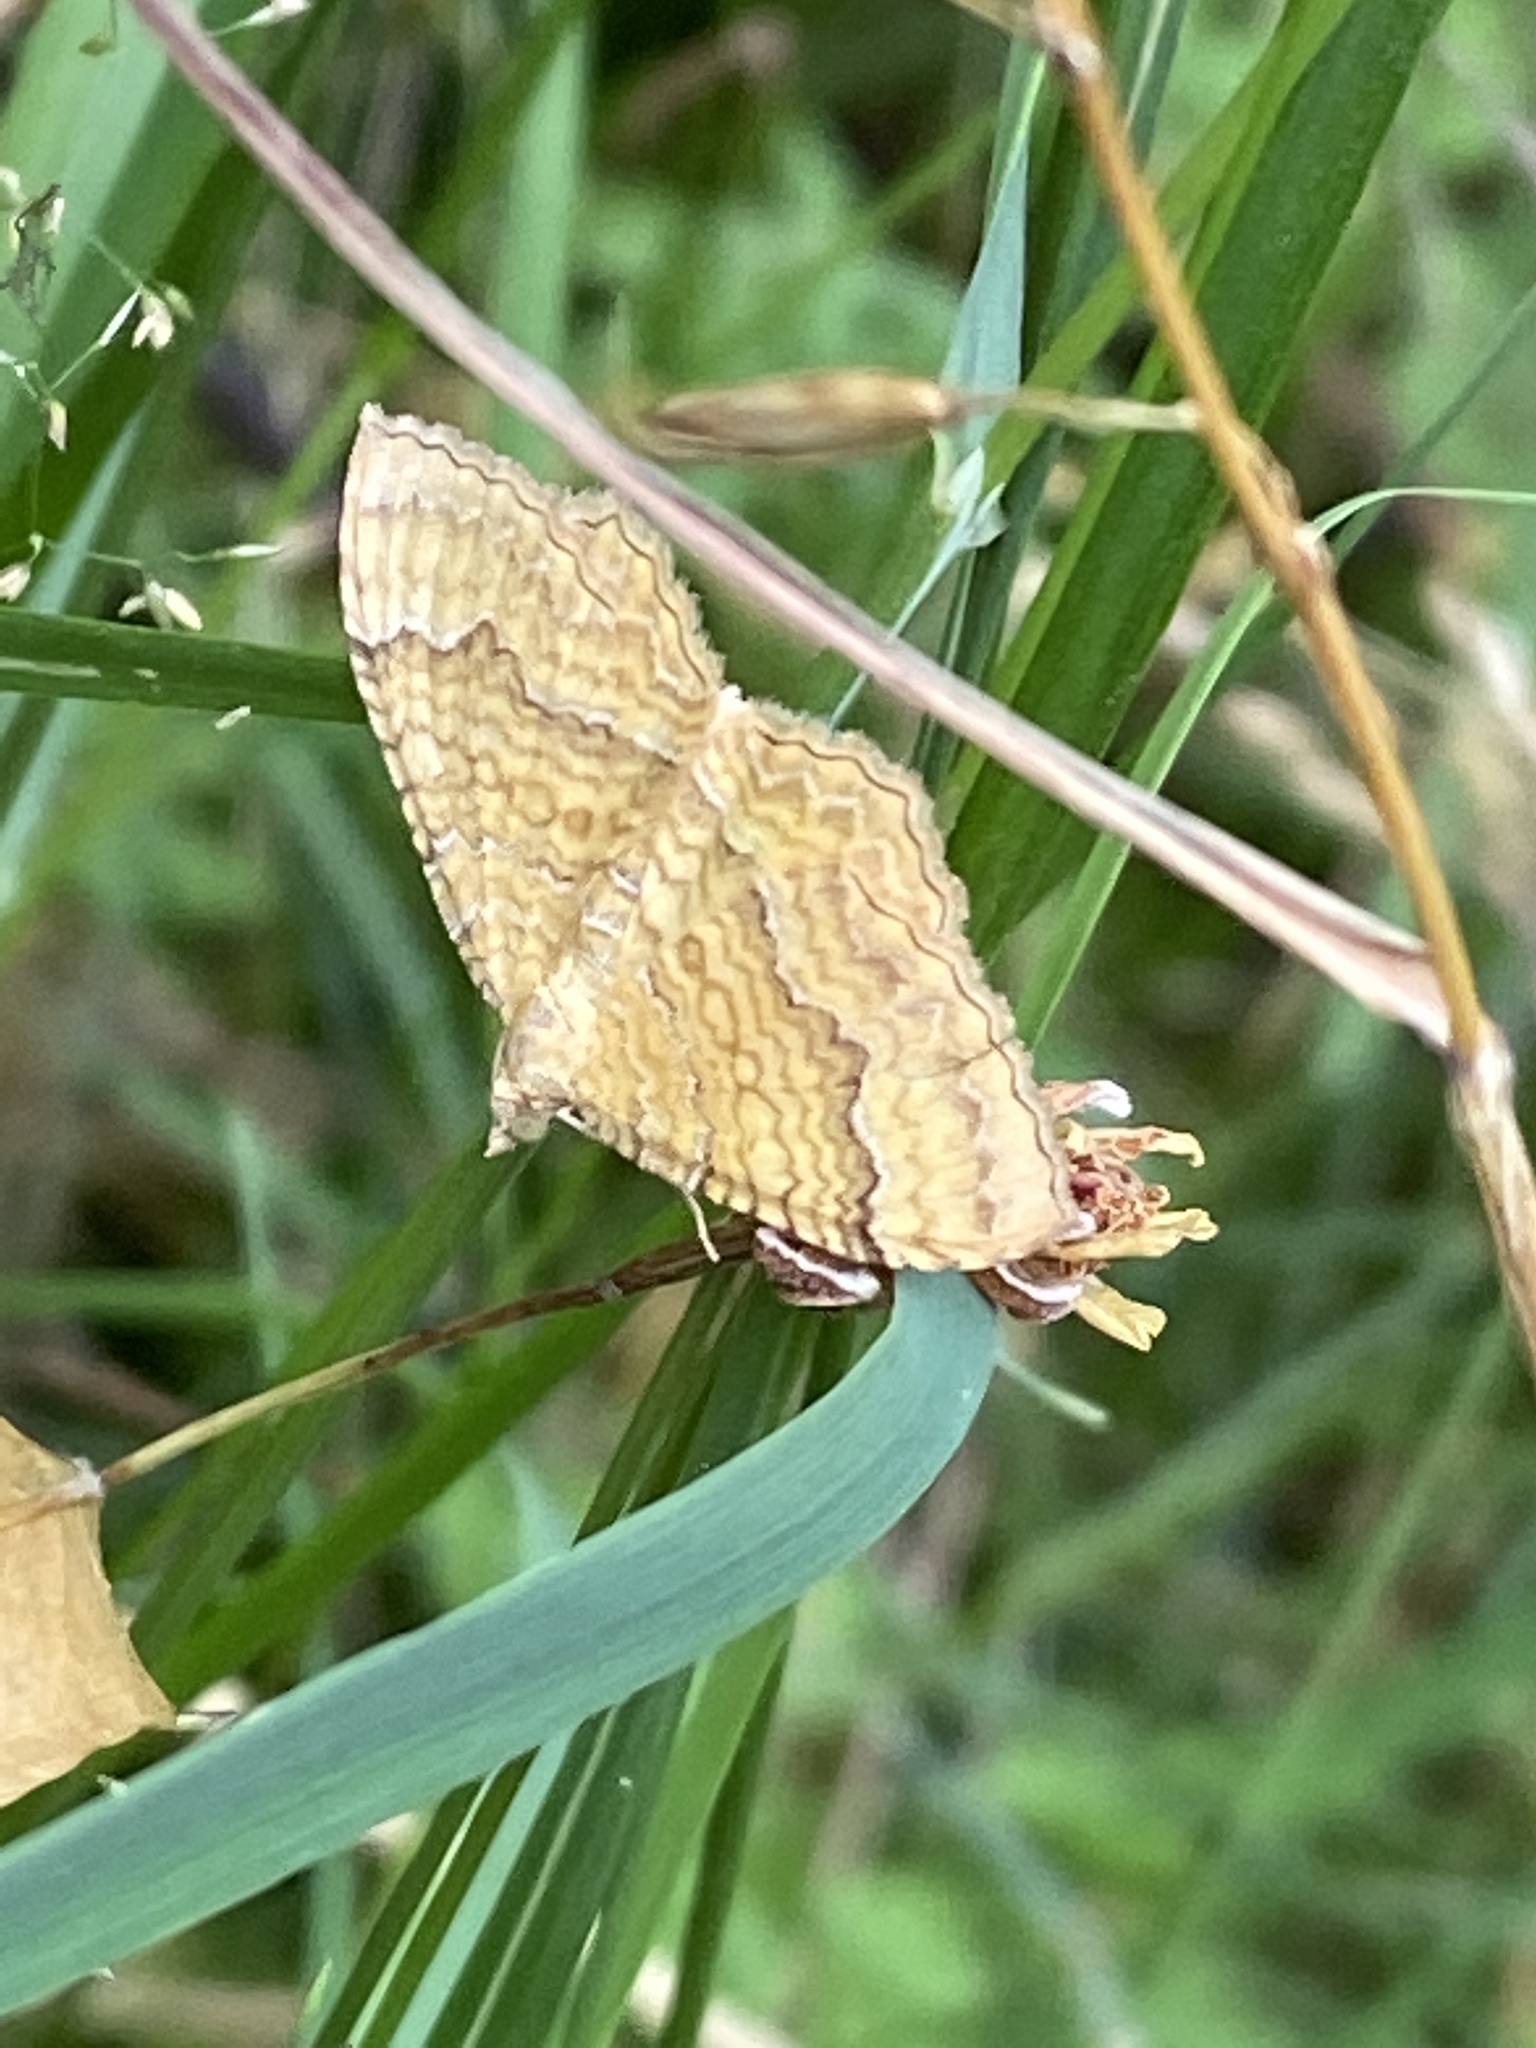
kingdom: Animalia
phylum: Arthropoda
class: Insecta
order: Lepidoptera
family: Geometridae
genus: Camptogramma
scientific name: Camptogramma bilineata
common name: Yellow shell
